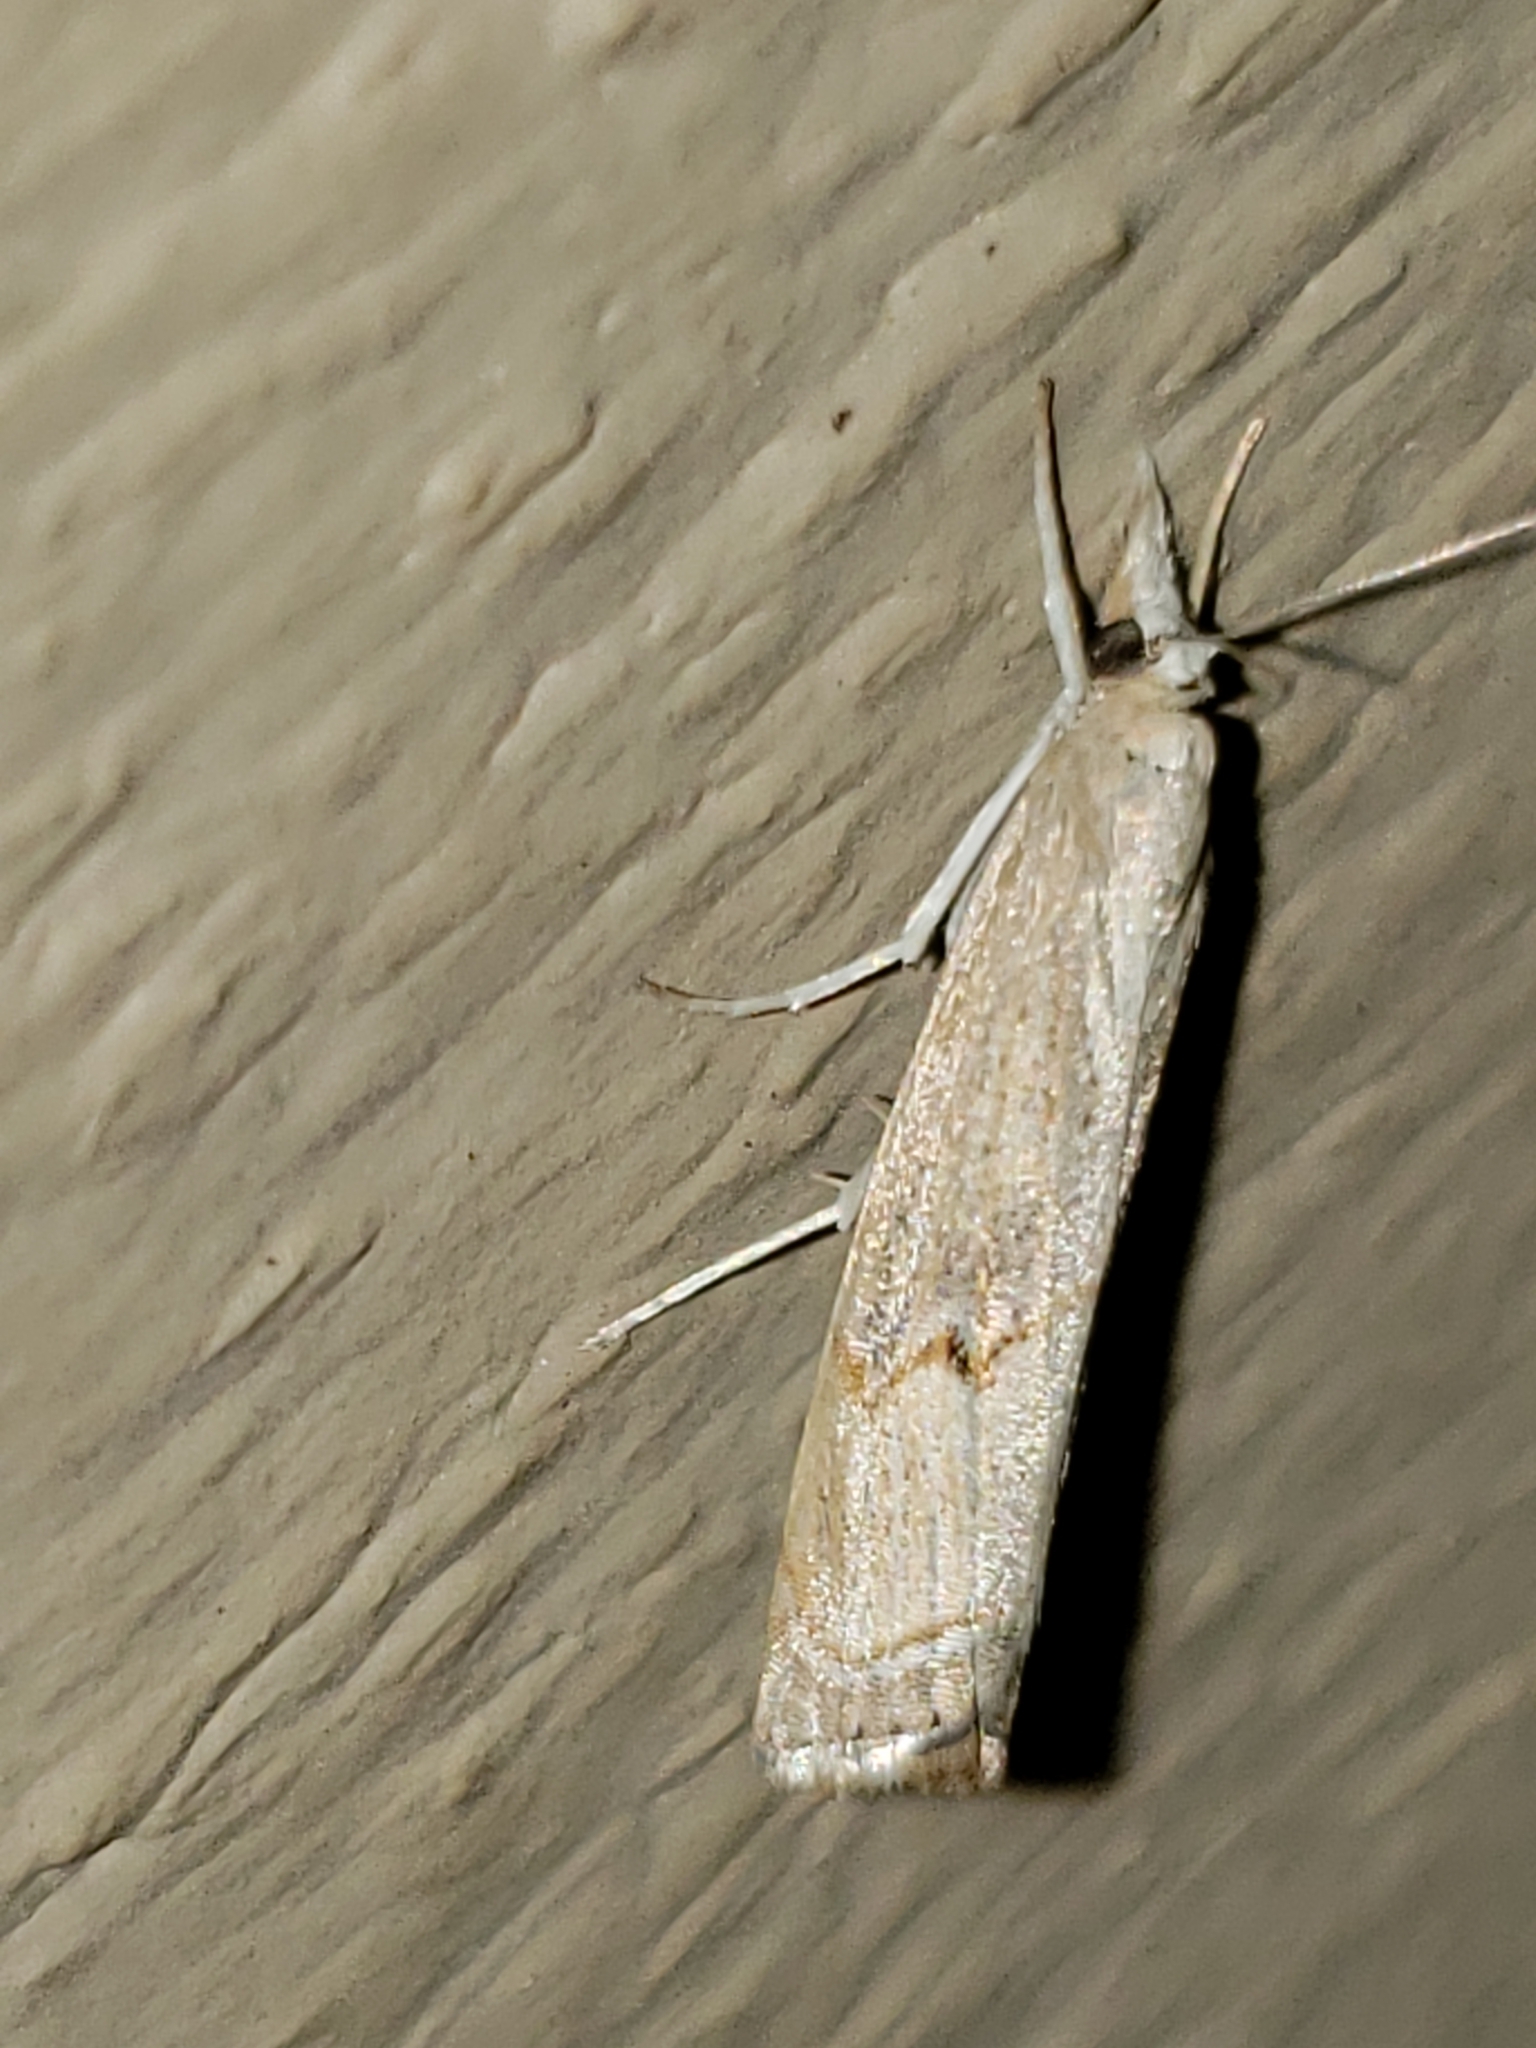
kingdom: Animalia
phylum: Arthropoda
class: Insecta
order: Lepidoptera
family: Crambidae
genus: Parapediasia
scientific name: Parapediasia teterellus
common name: Bluegrass webworm moth
